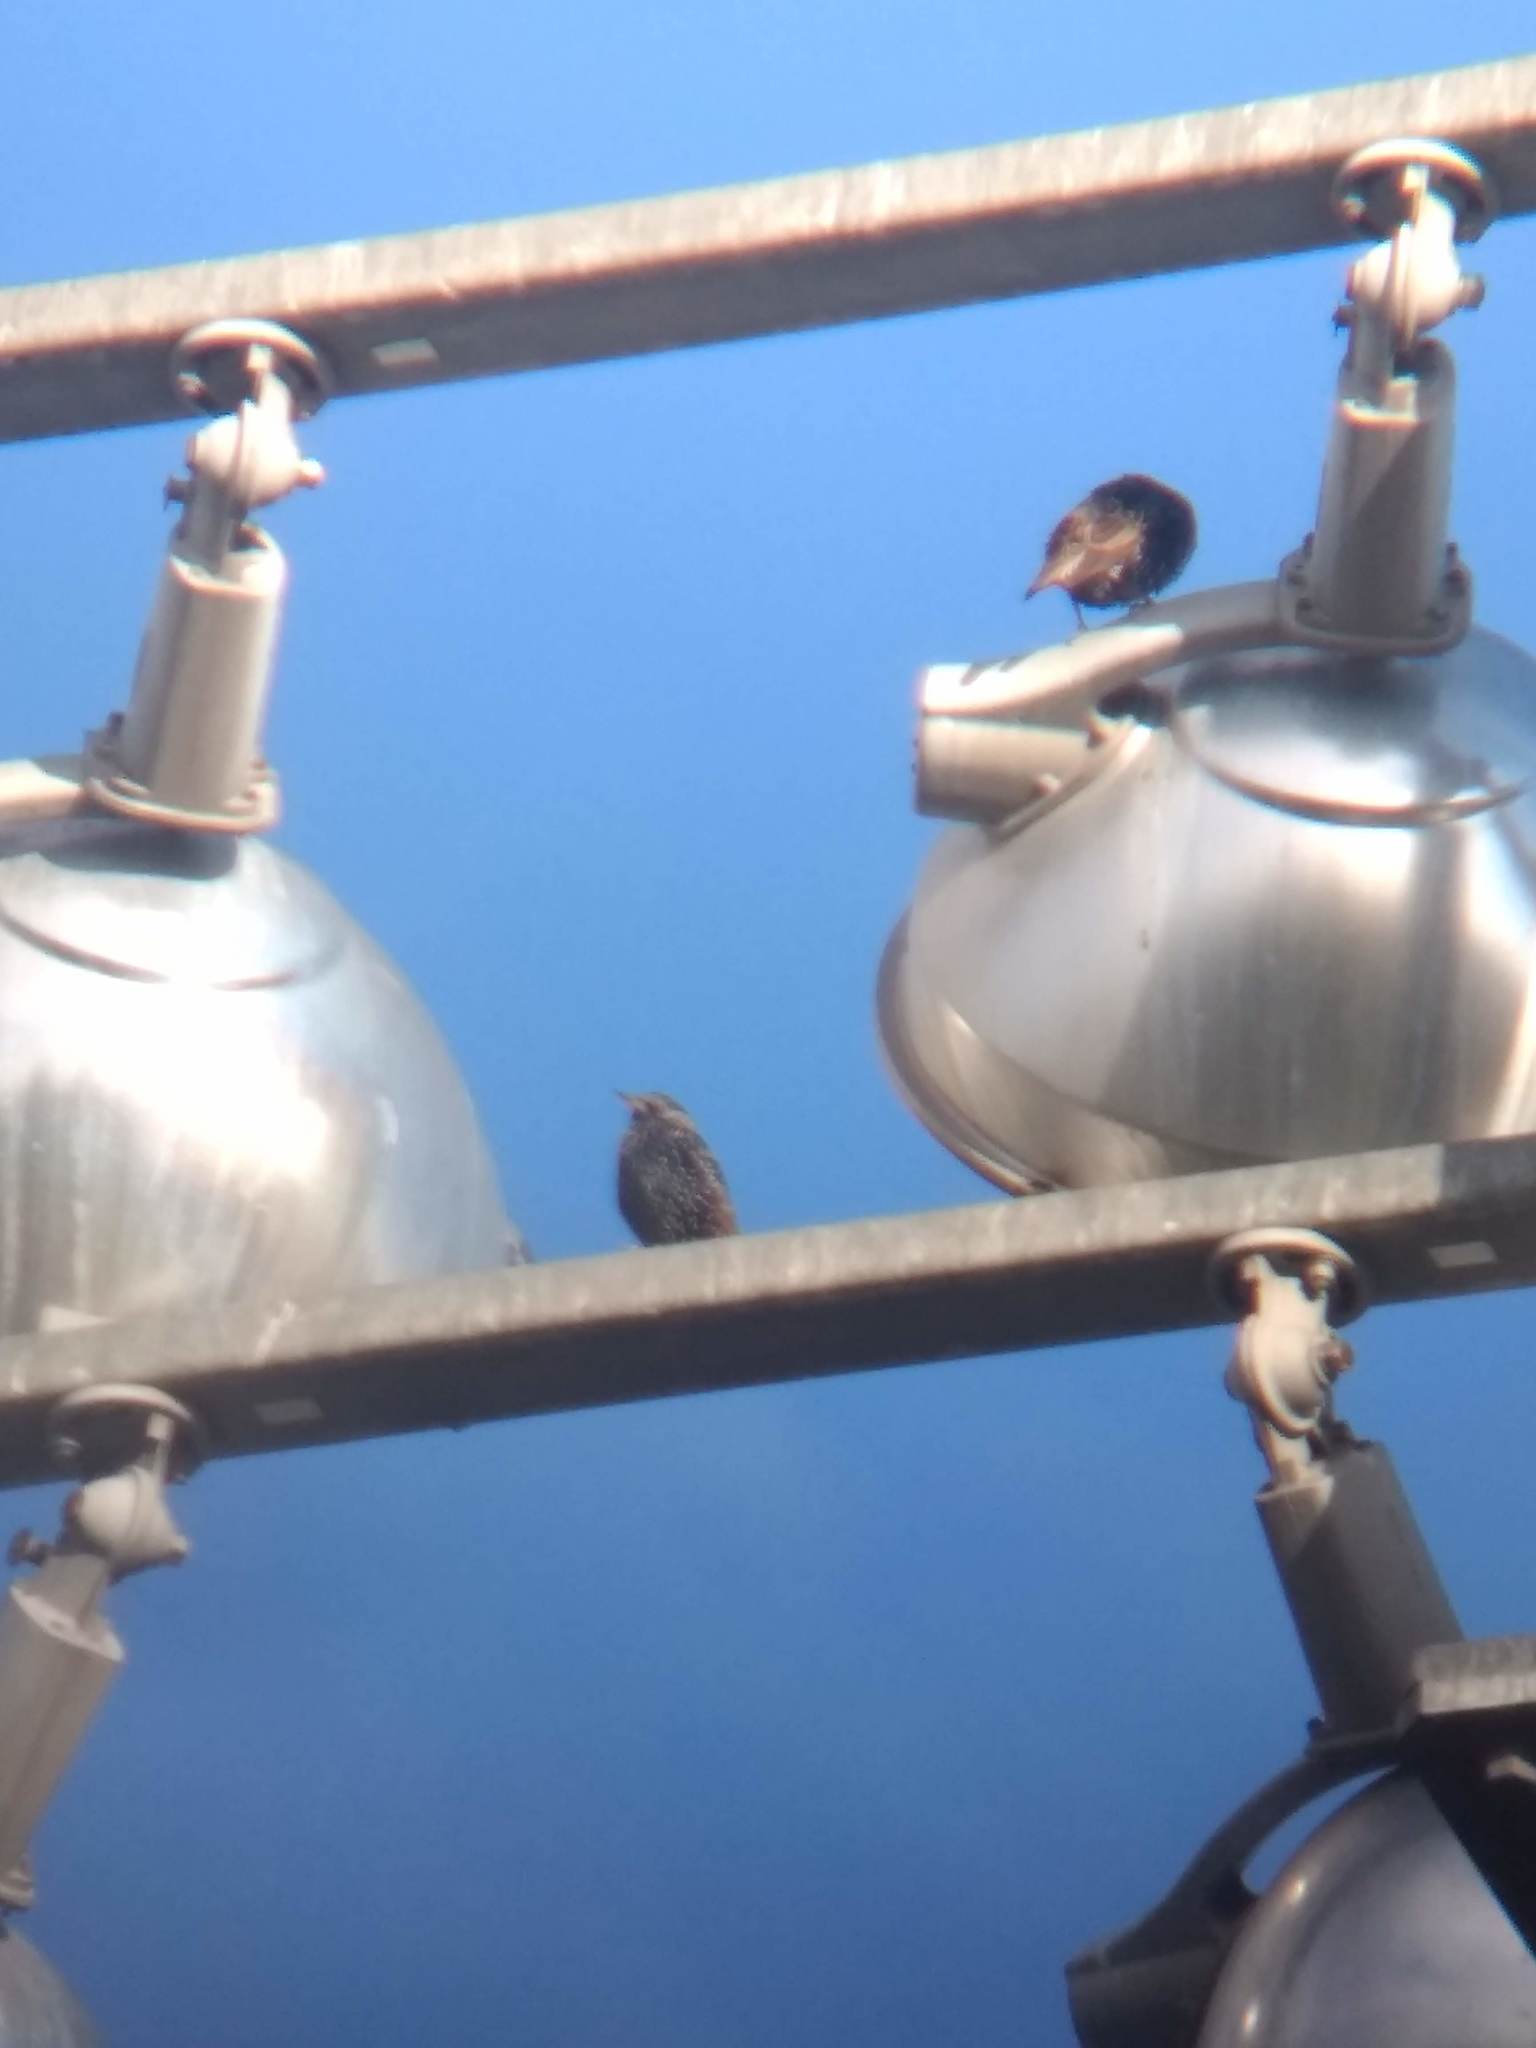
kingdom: Animalia
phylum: Chordata
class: Aves
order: Passeriformes
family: Sturnidae
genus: Sturnus
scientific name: Sturnus vulgaris
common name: Common starling
